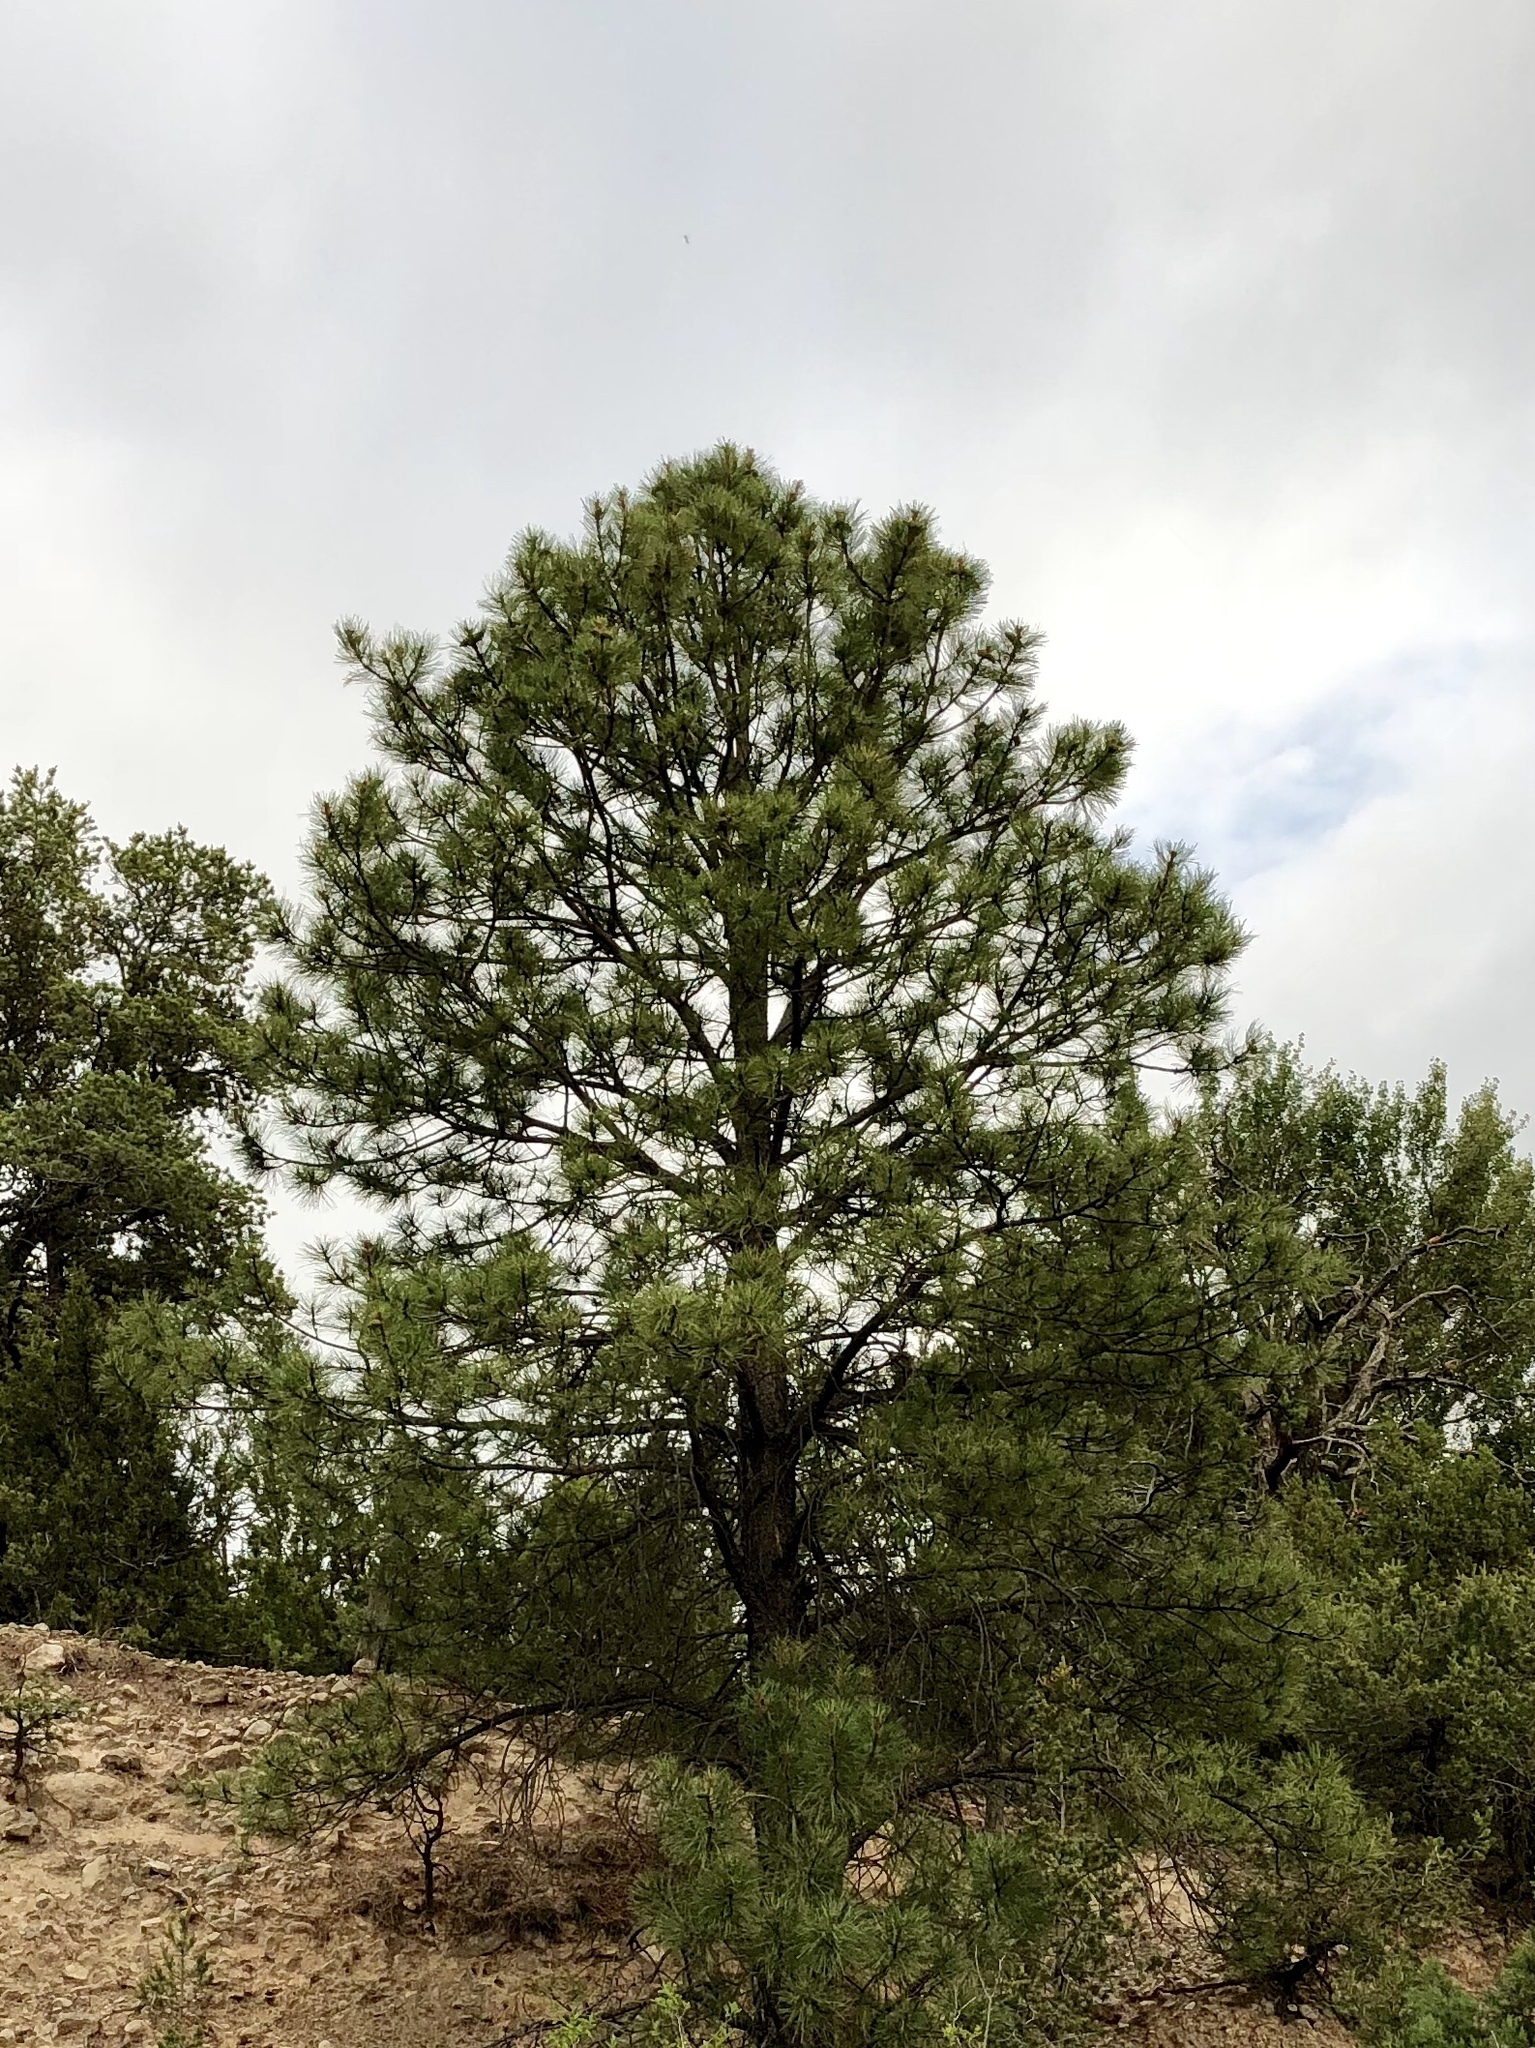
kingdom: Plantae
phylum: Tracheophyta
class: Pinopsida
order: Pinales
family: Pinaceae
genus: Pinus
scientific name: Pinus ponderosa
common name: Western yellow-pine
